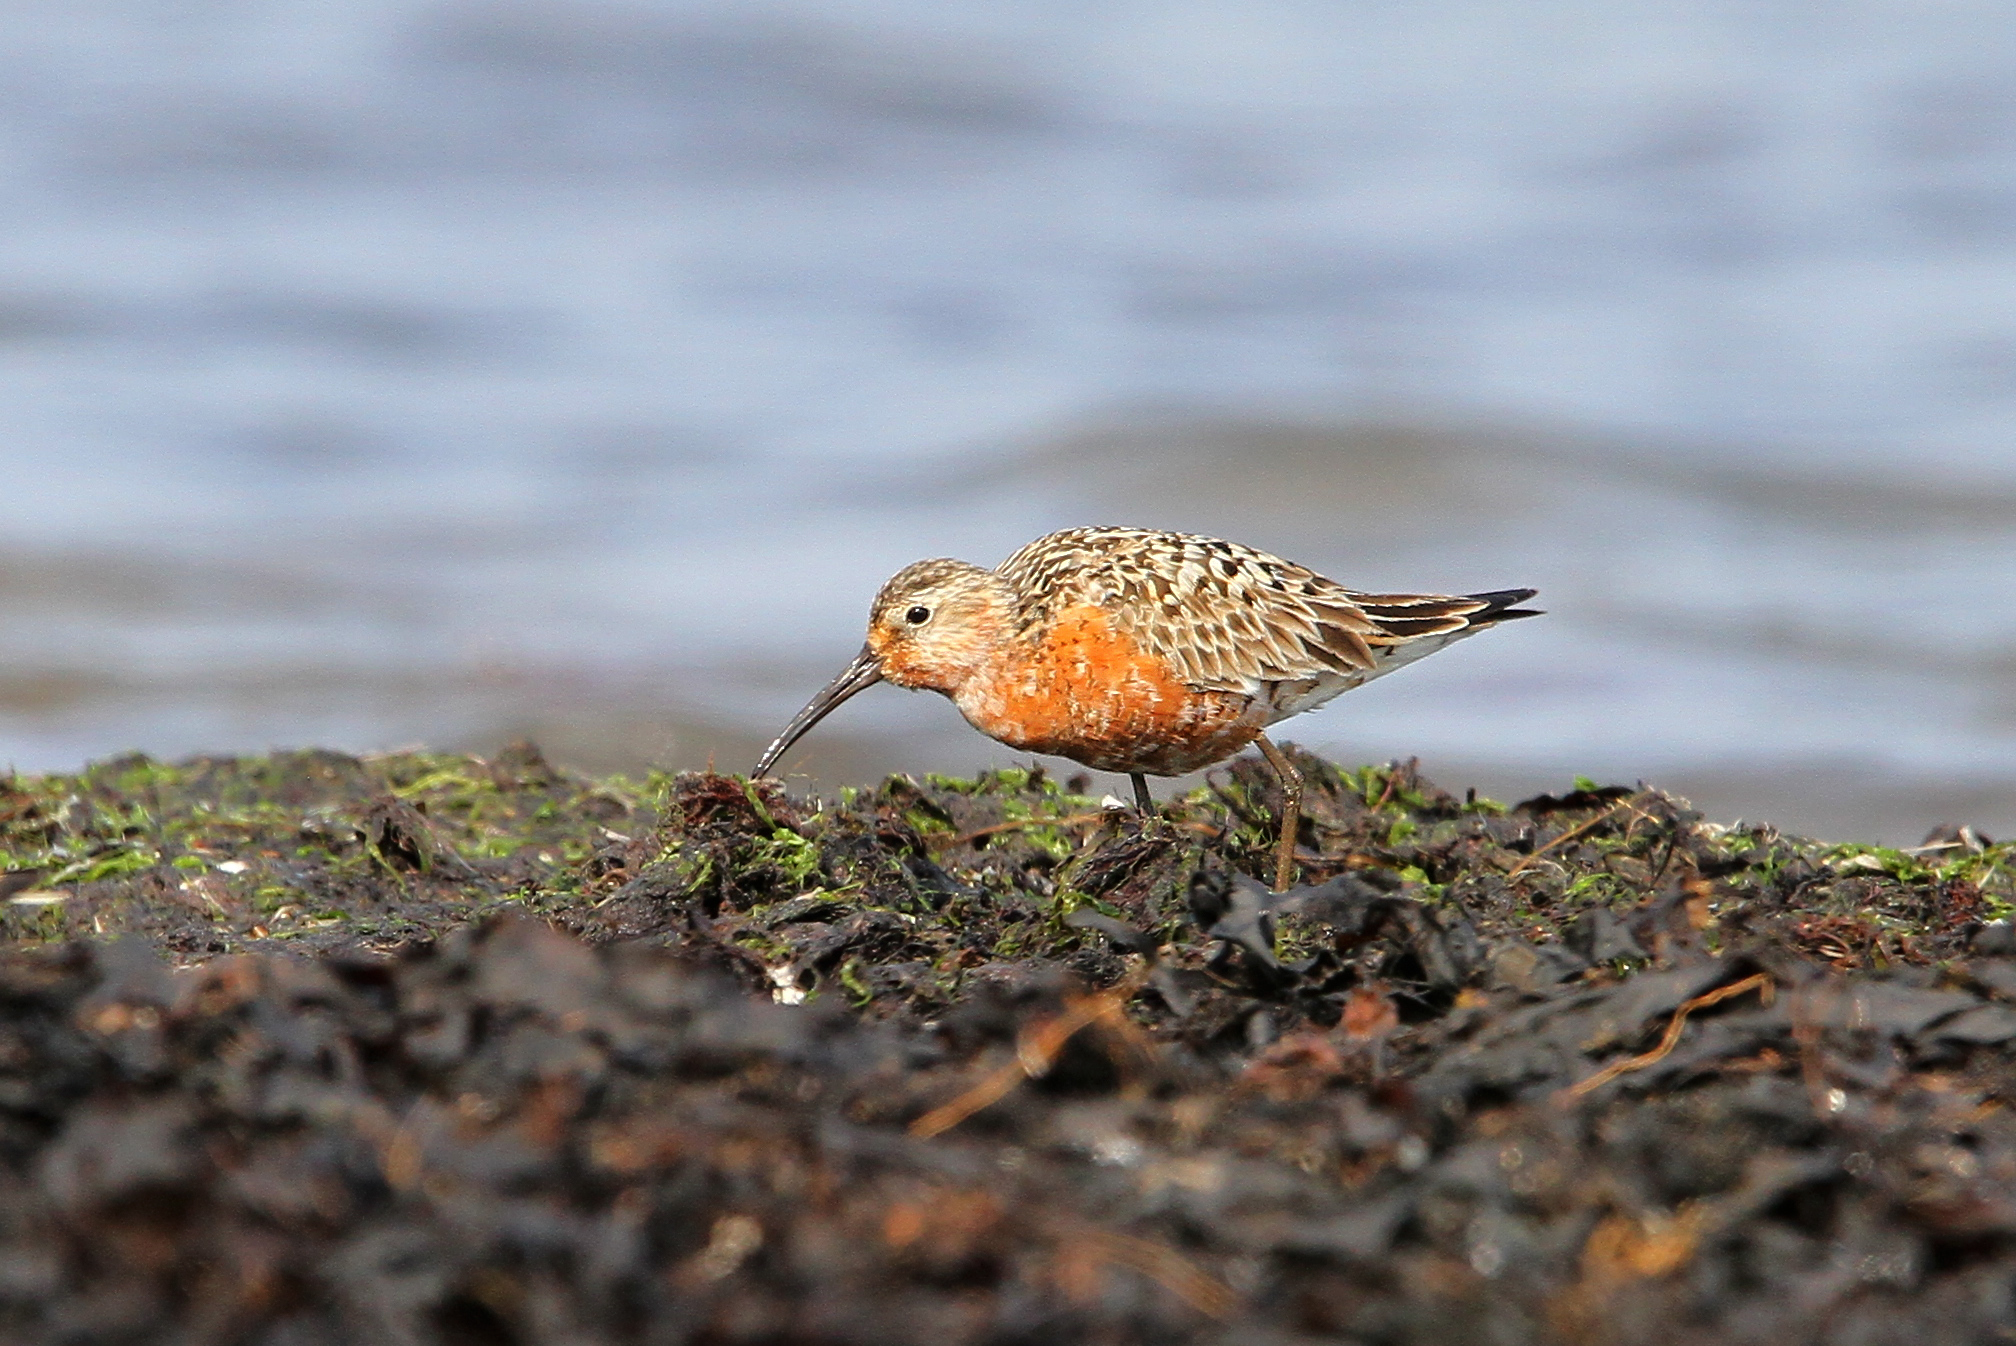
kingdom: Animalia
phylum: Chordata
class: Aves
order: Charadriiformes
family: Scolopacidae
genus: Calidris
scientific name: Calidris ferruginea
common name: Curlew sandpiper
